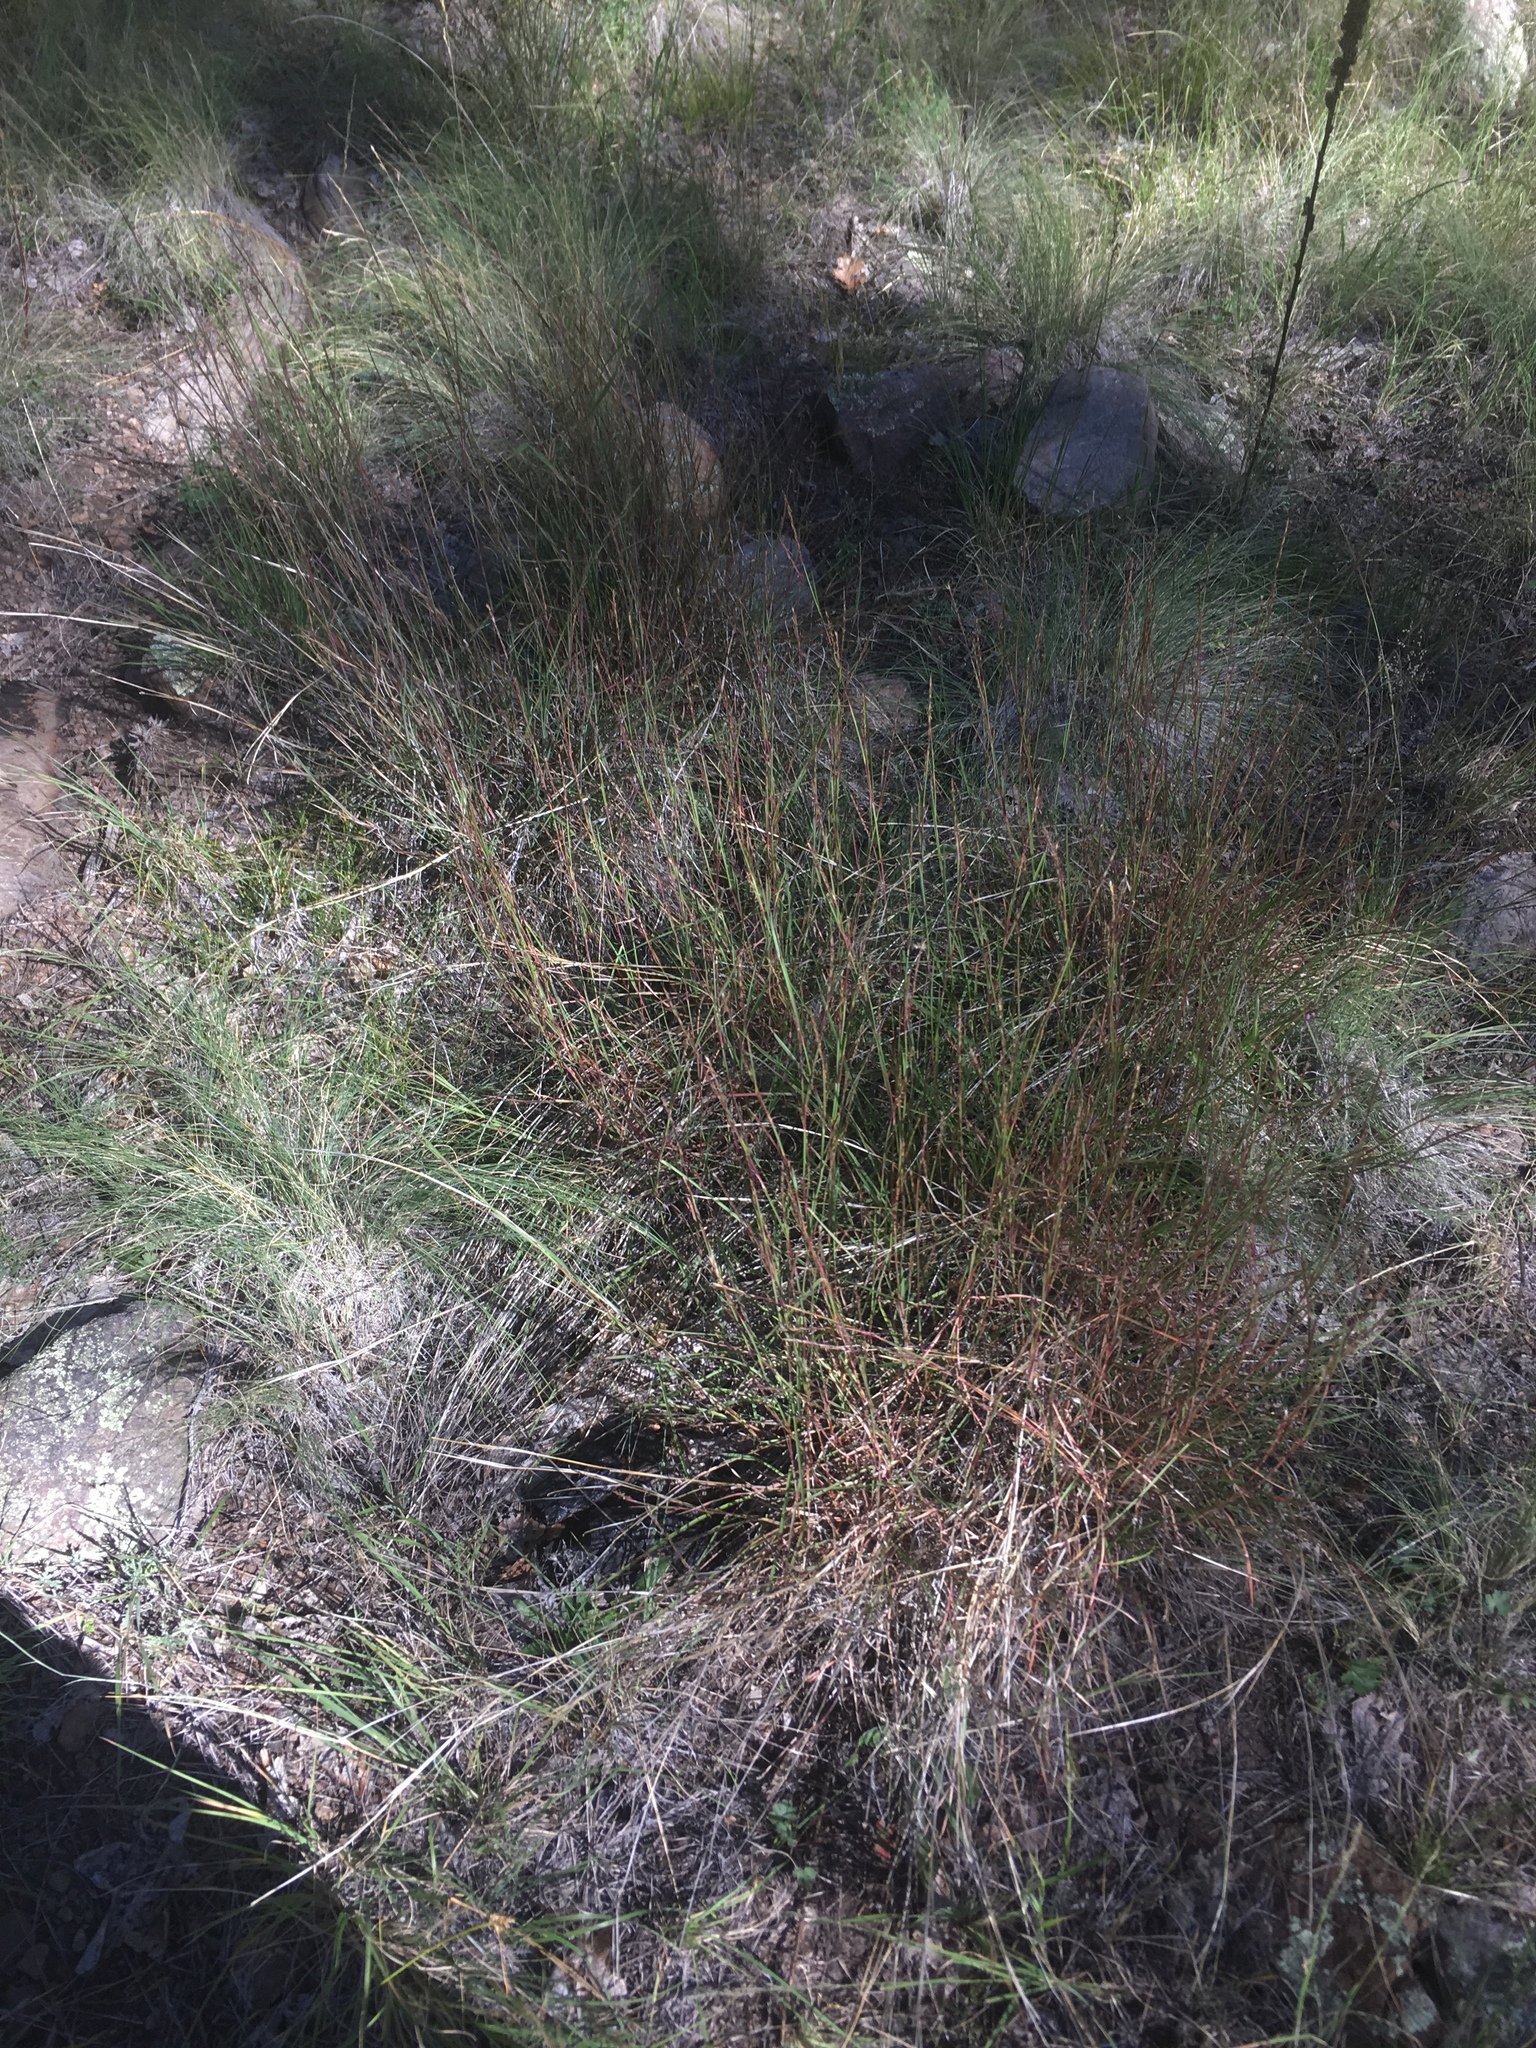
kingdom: Plantae
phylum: Tracheophyta
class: Liliopsida
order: Poales
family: Poaceae
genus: Schizachyrium
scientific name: Schizachyrium scoparium
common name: Little bluestem
